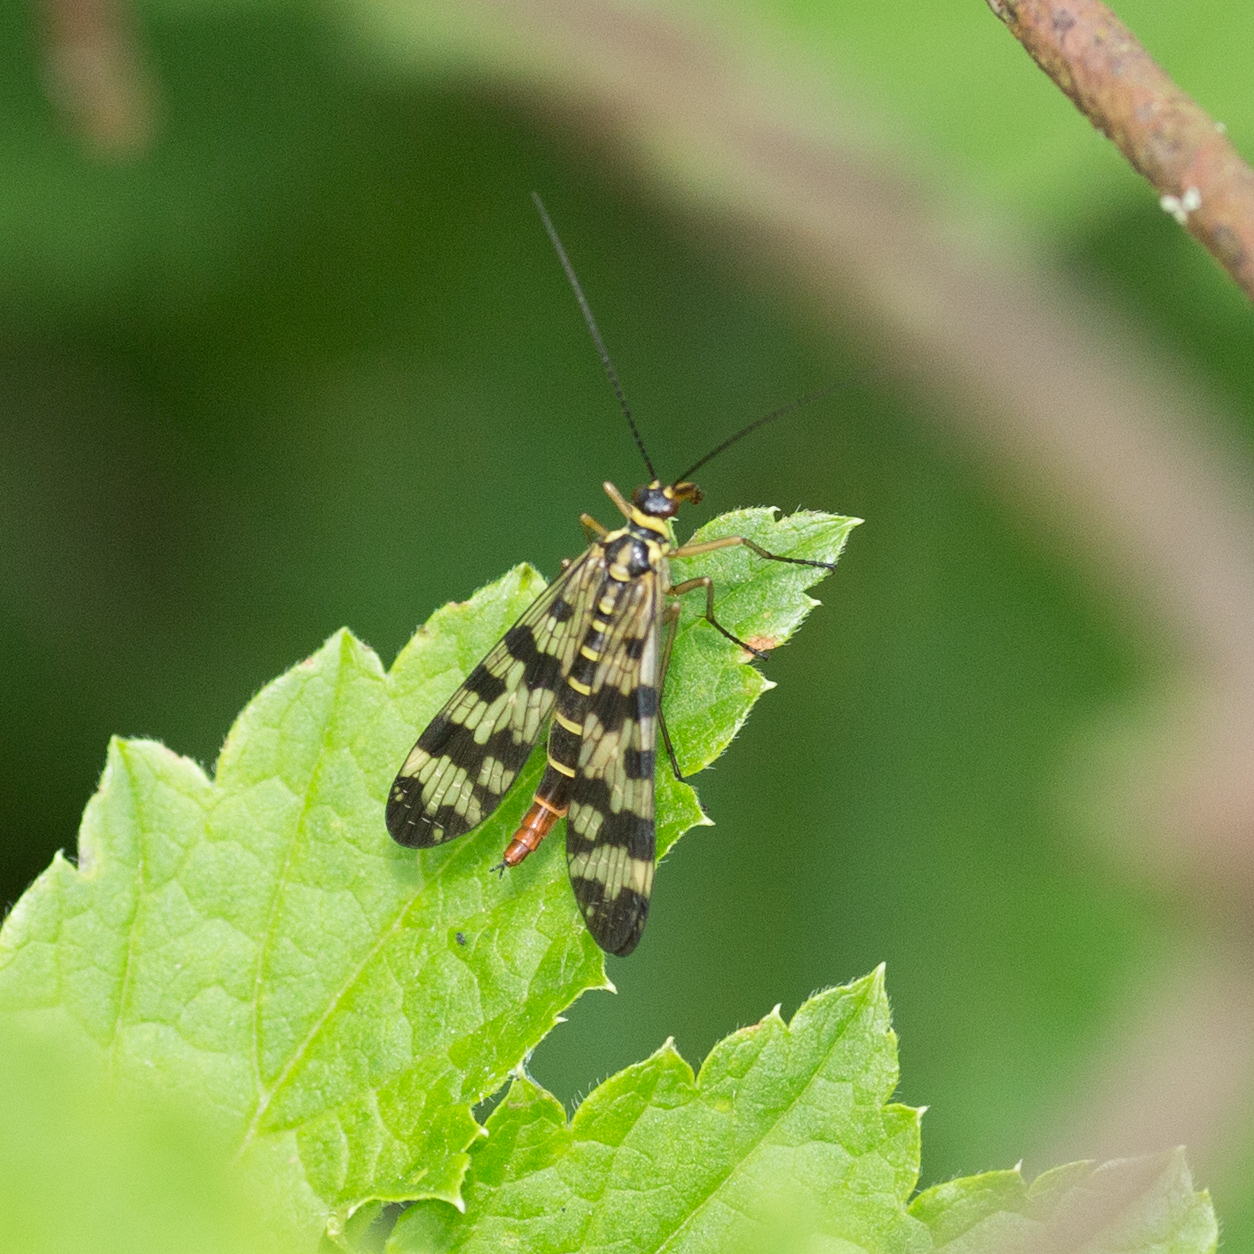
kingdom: Animalia
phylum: Arthropoda
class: Insecta
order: Mecoptera
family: Panorpidae
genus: Panorpa
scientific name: Panorpa communis
